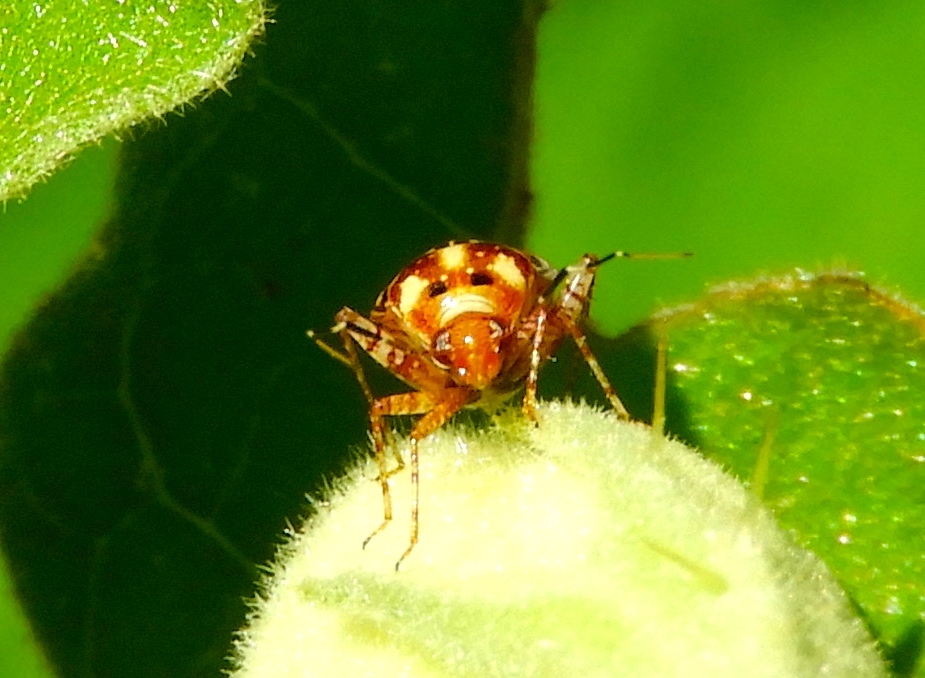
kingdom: Animalia
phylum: Arthropoda
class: Insecta
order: Hemiptera
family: Miridae
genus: Taedia
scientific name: Taedia
